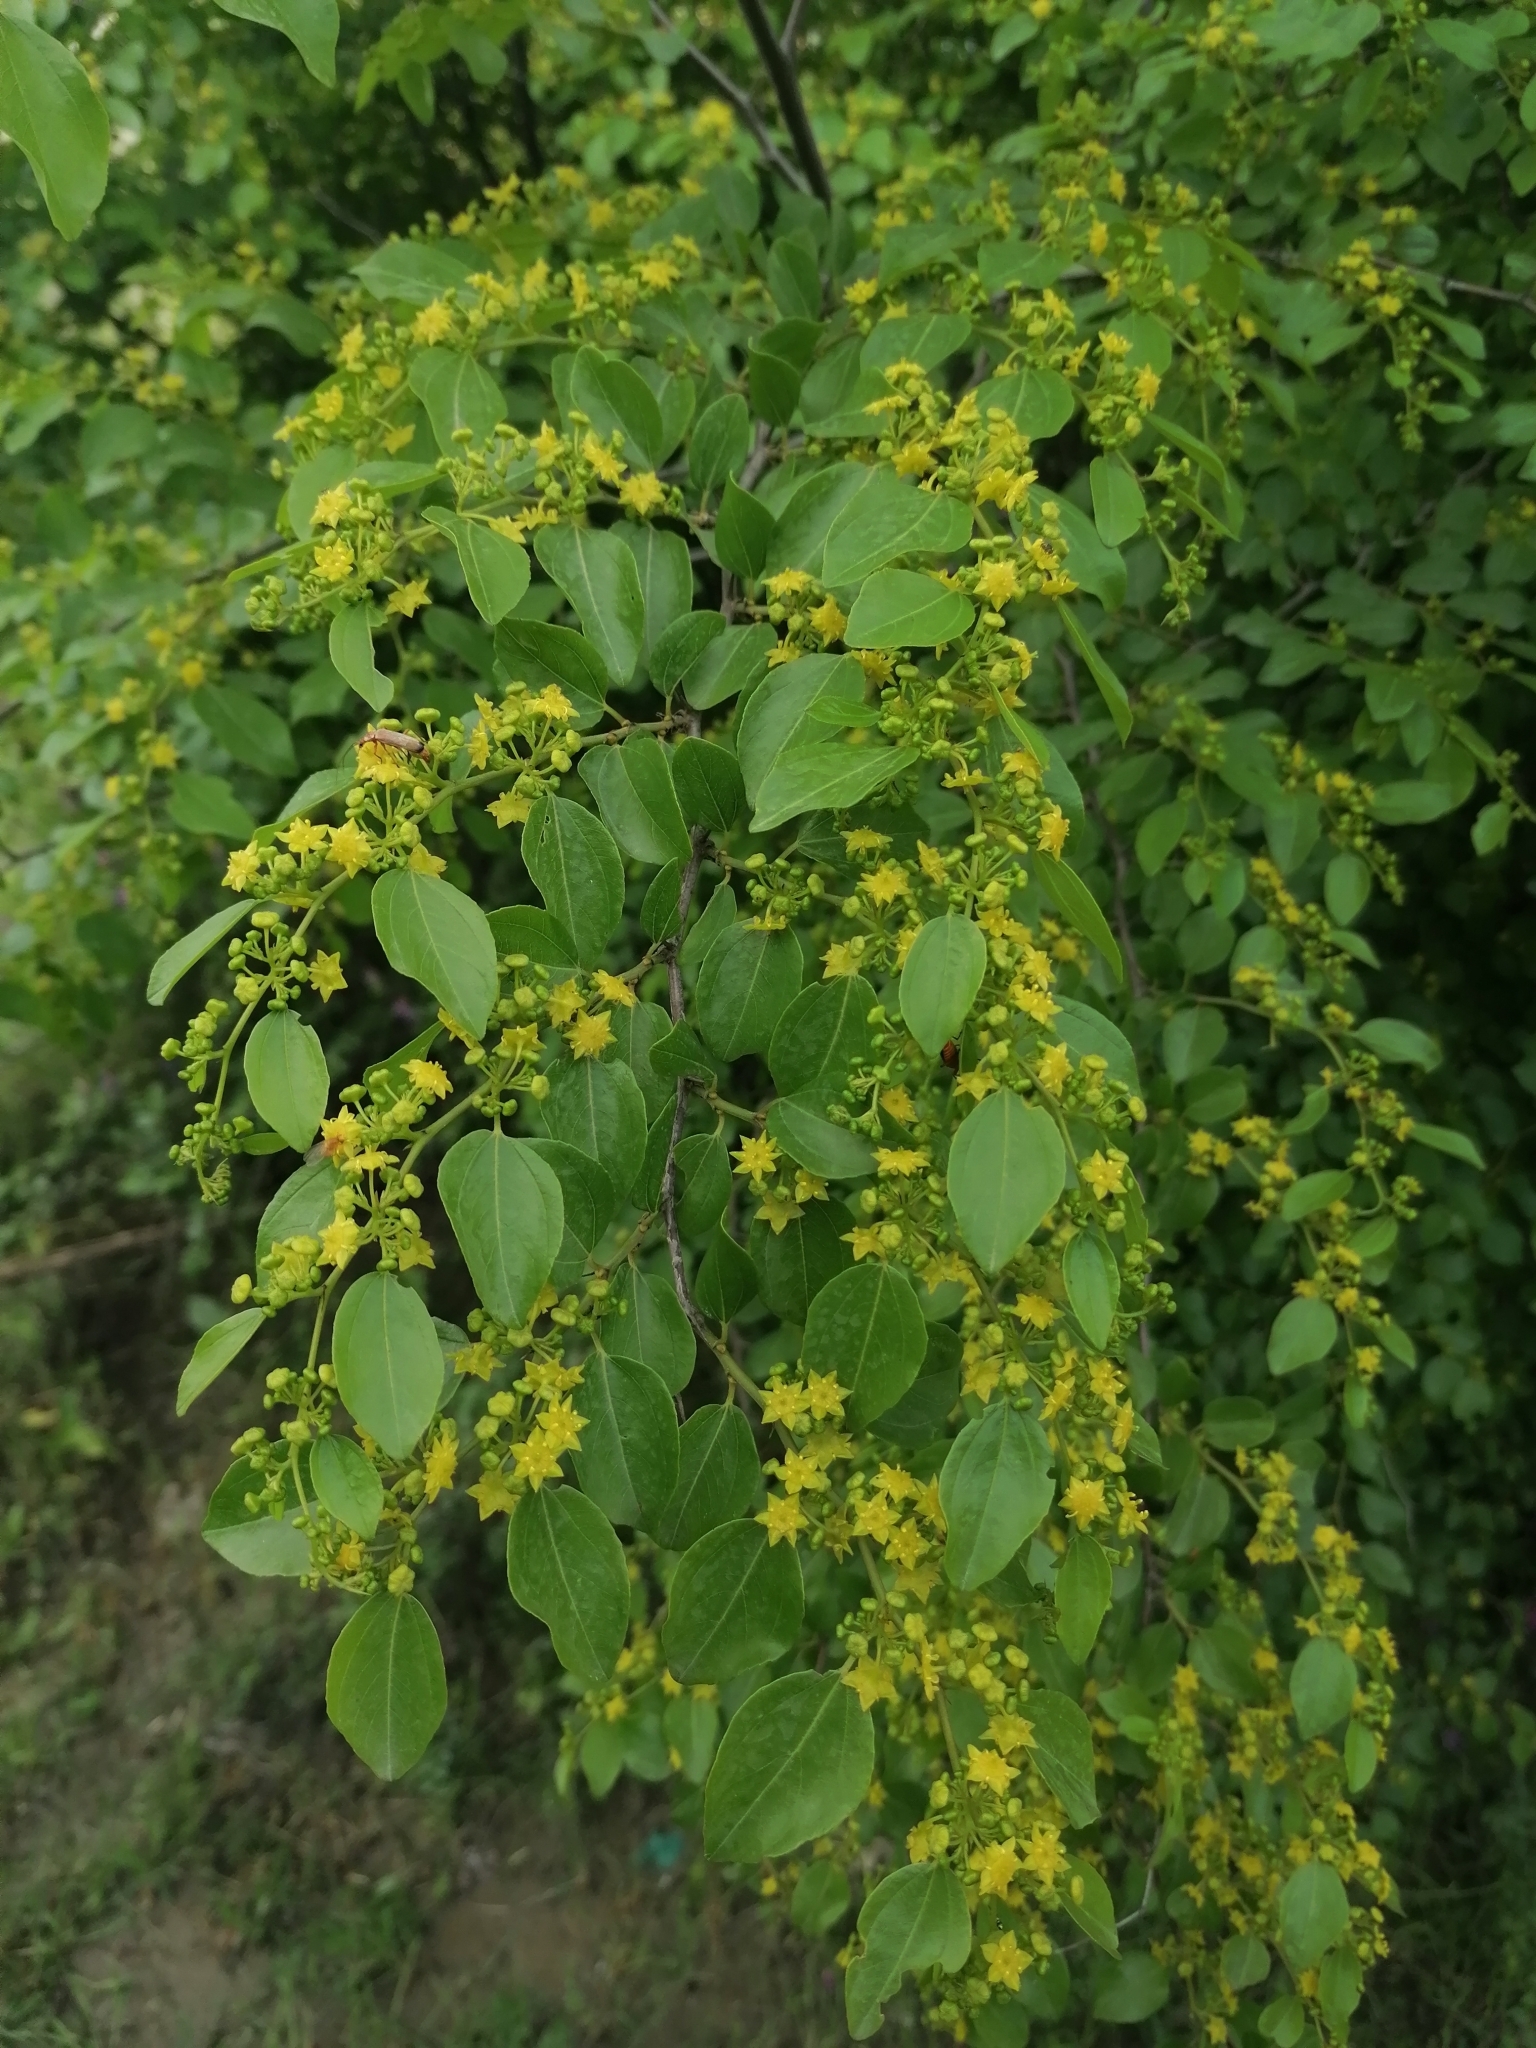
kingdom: Plantae
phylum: Tracheophyta
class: Magnoliopsida
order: Rosales
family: Rhamnaceae
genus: Paliurus
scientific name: Paliurus spina-christi
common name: Jeruselem thorn
